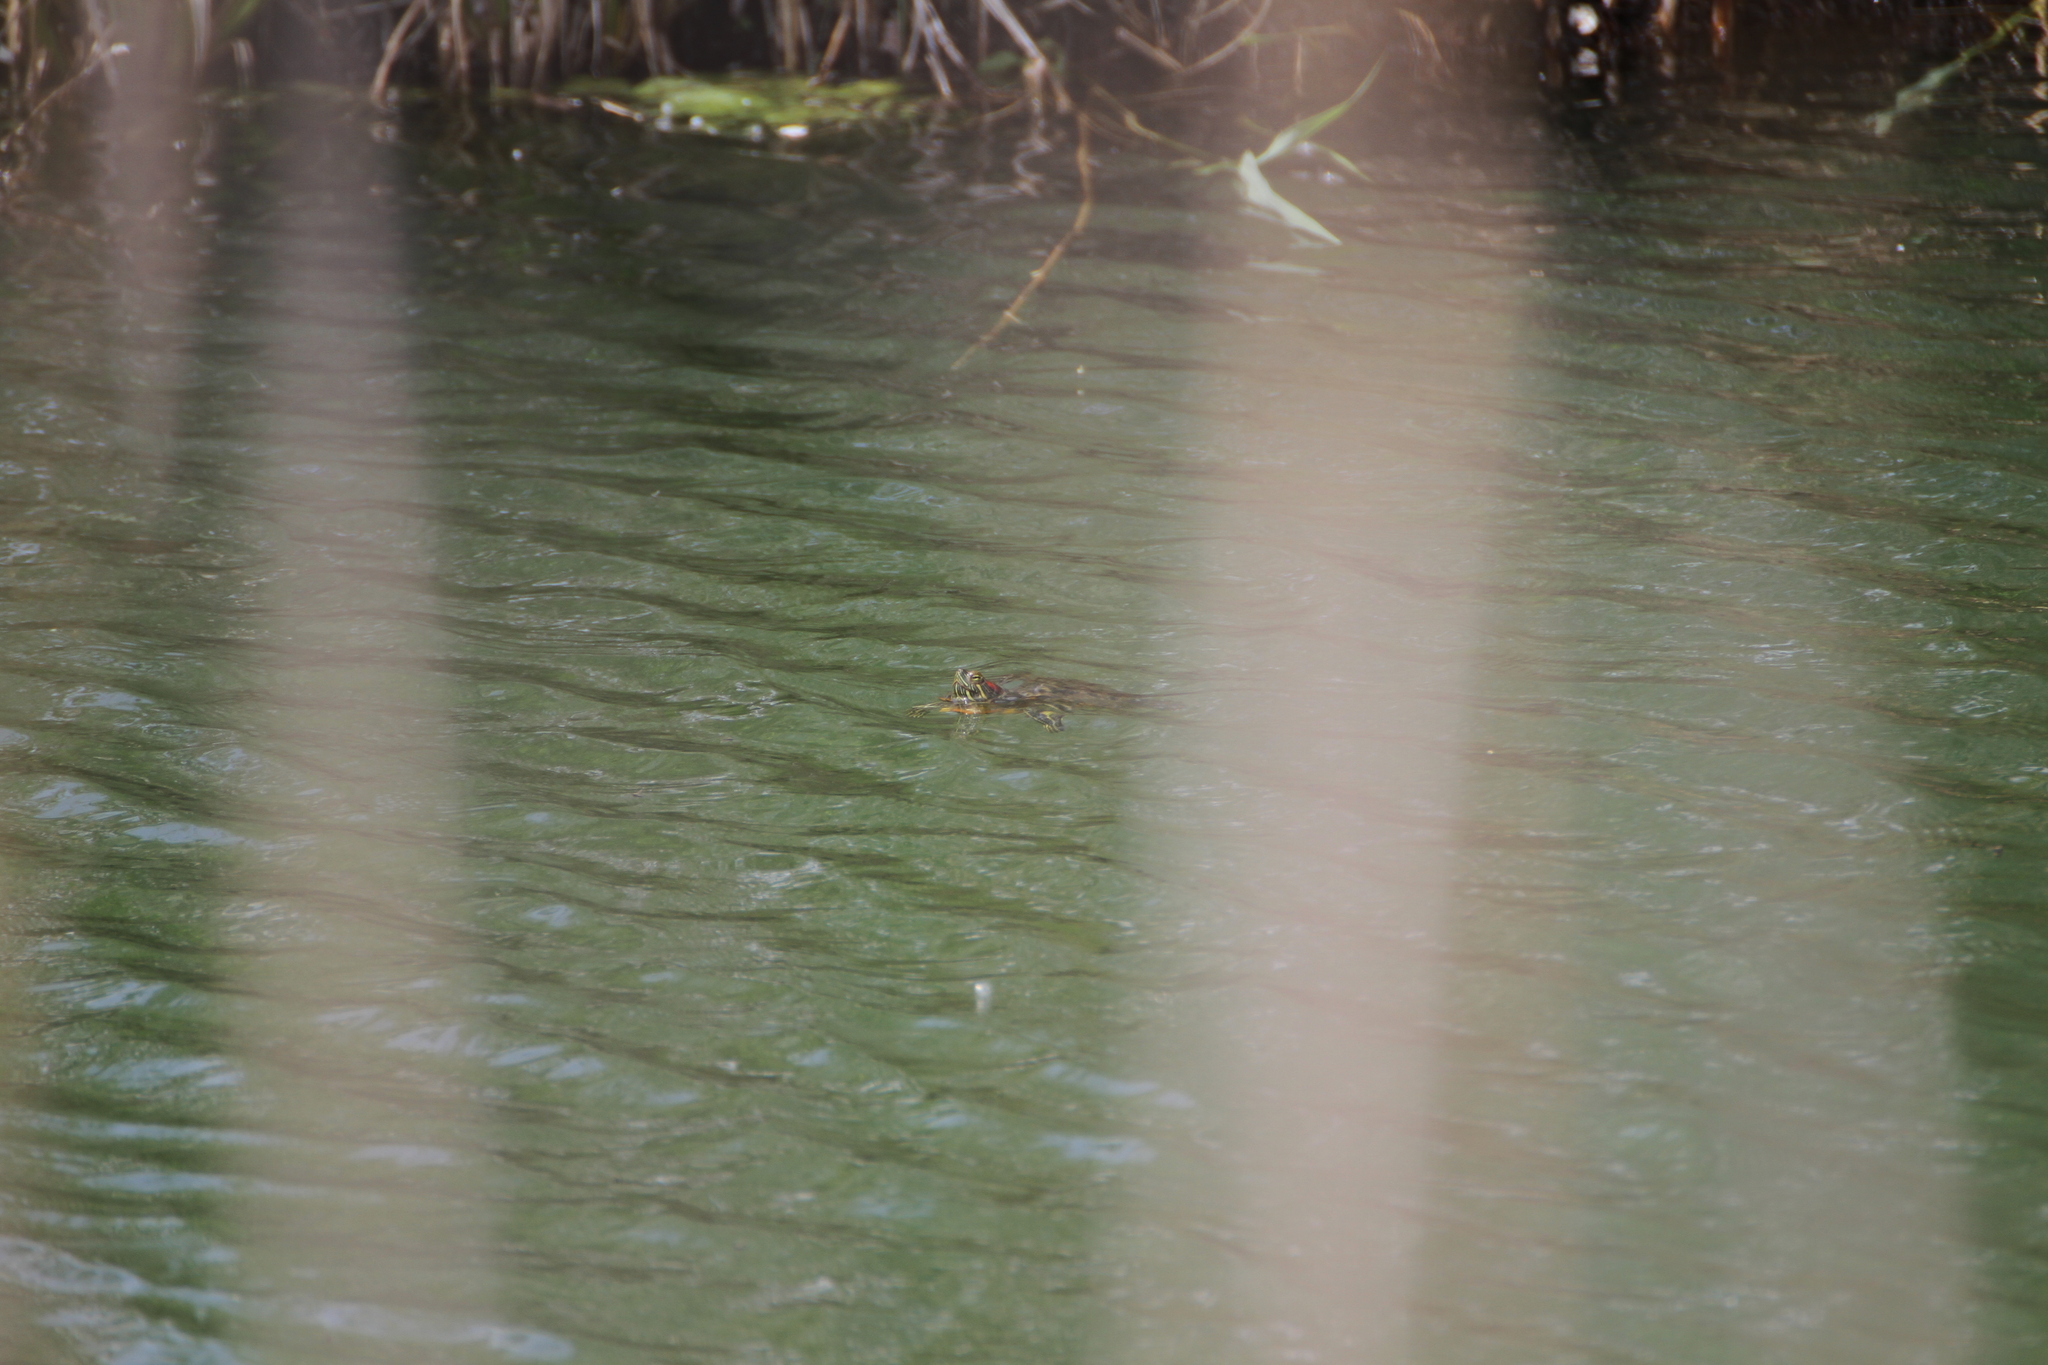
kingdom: Animalia
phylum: Chordata
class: Testudines
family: Emydidae
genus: Trachemys
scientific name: Trachemys scripta
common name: Slider
